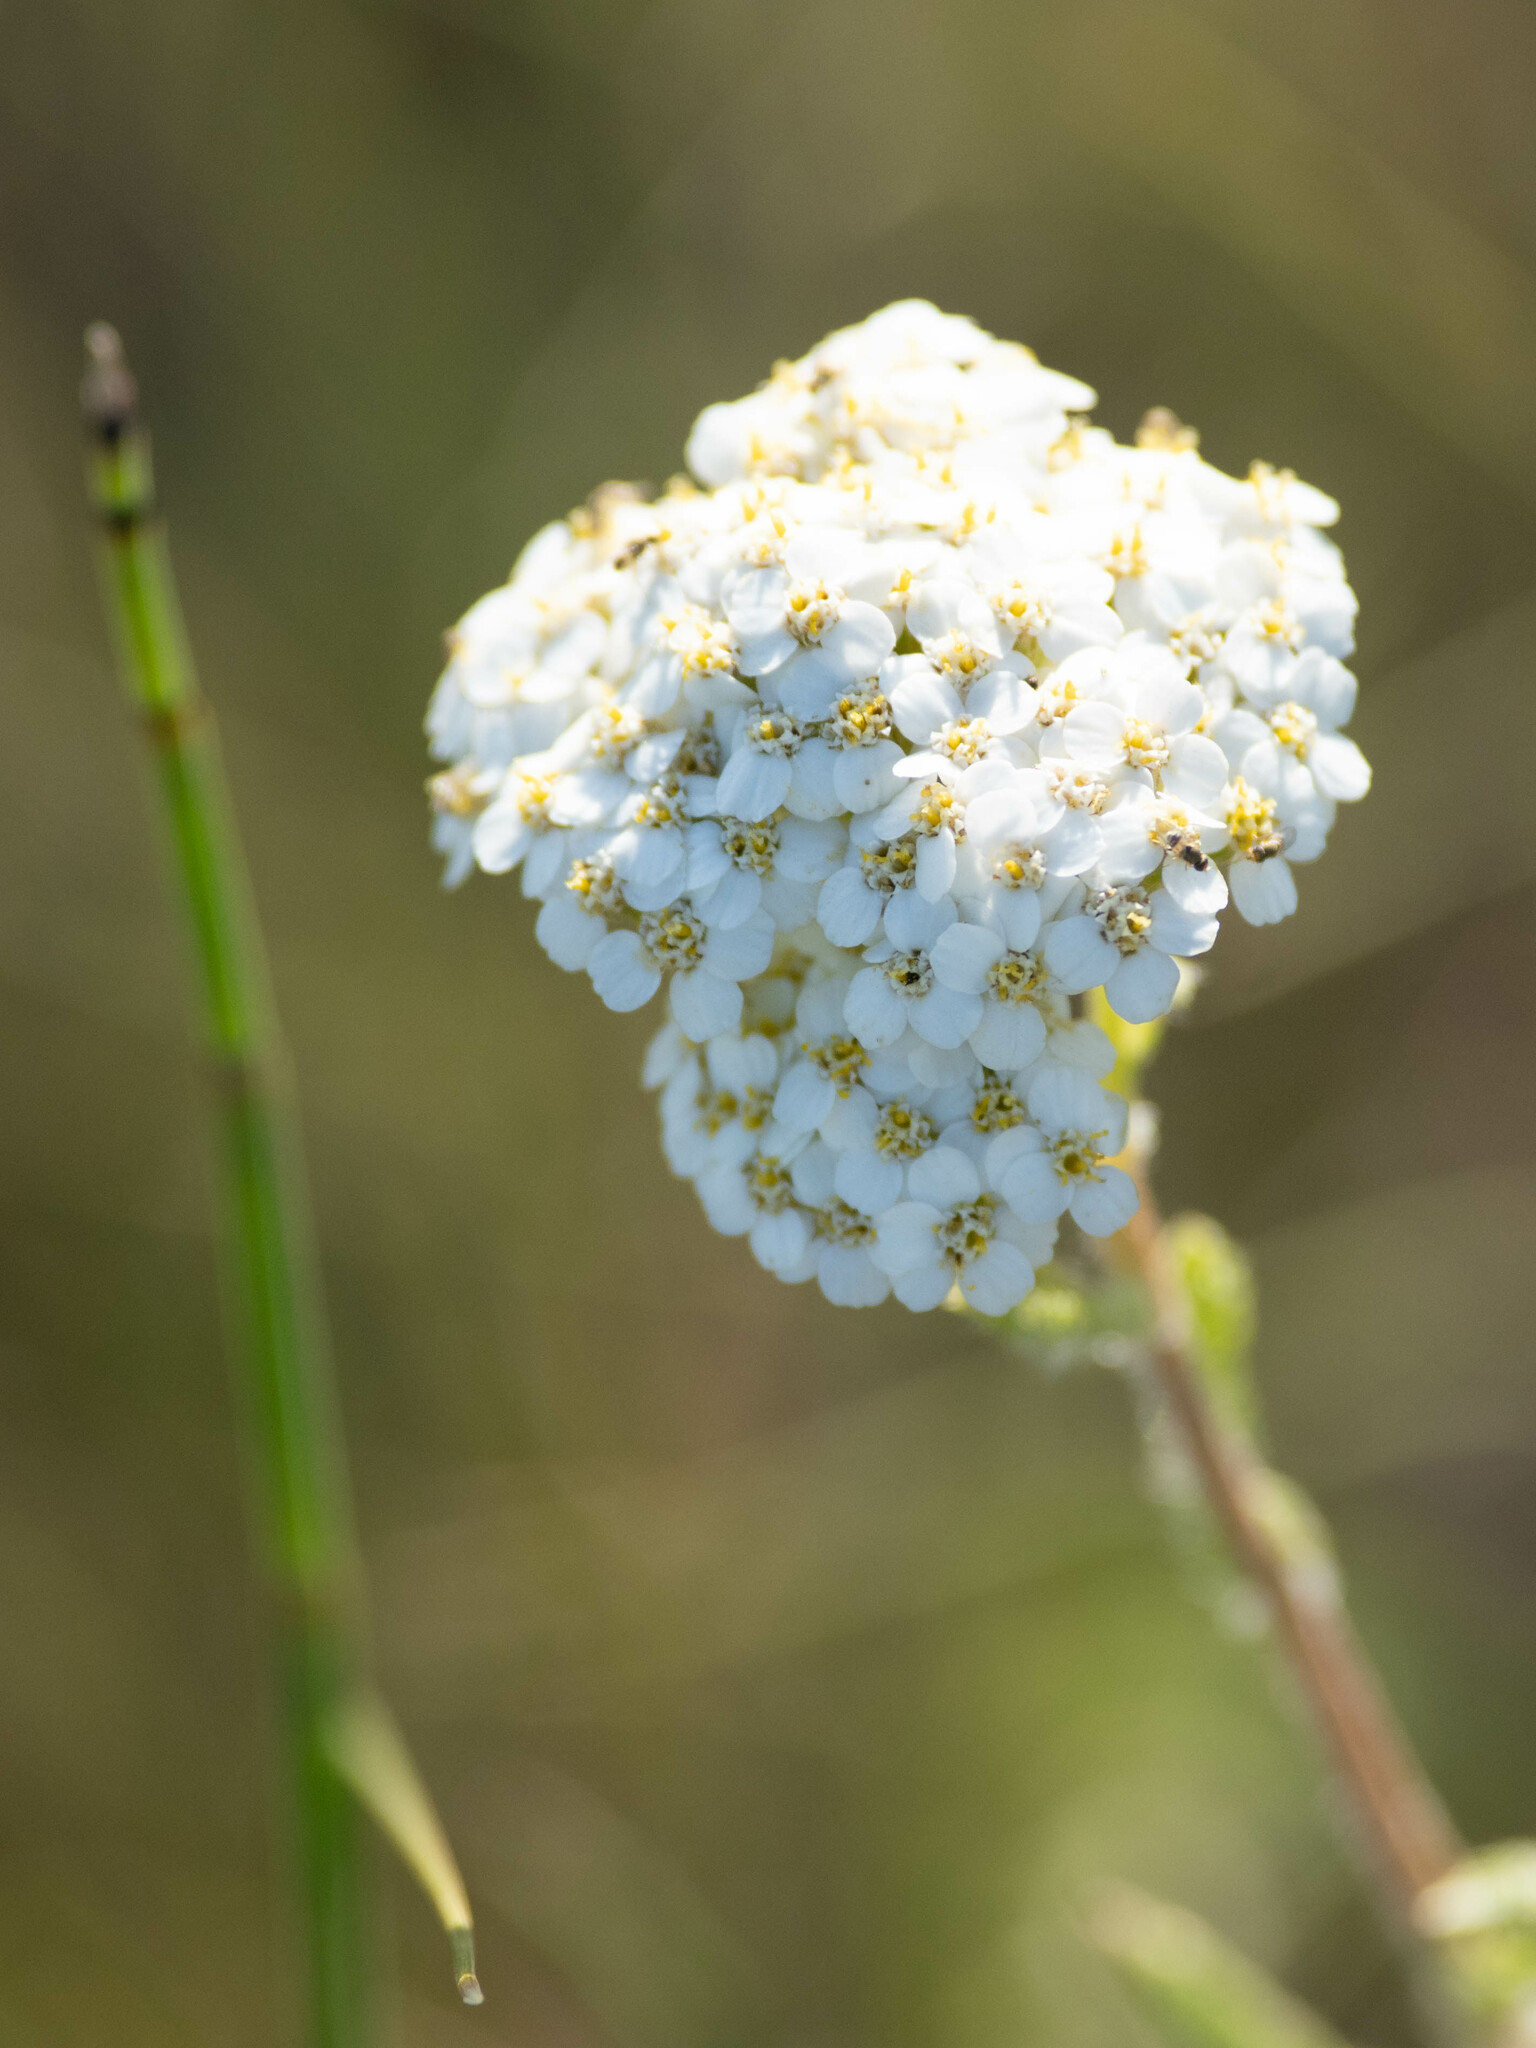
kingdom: Plantae
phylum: Tracheophyta
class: Magnoliopsida
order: Asterales
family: Asteraceae
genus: Achillea
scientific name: Achillea millefolium
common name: Yarrow
